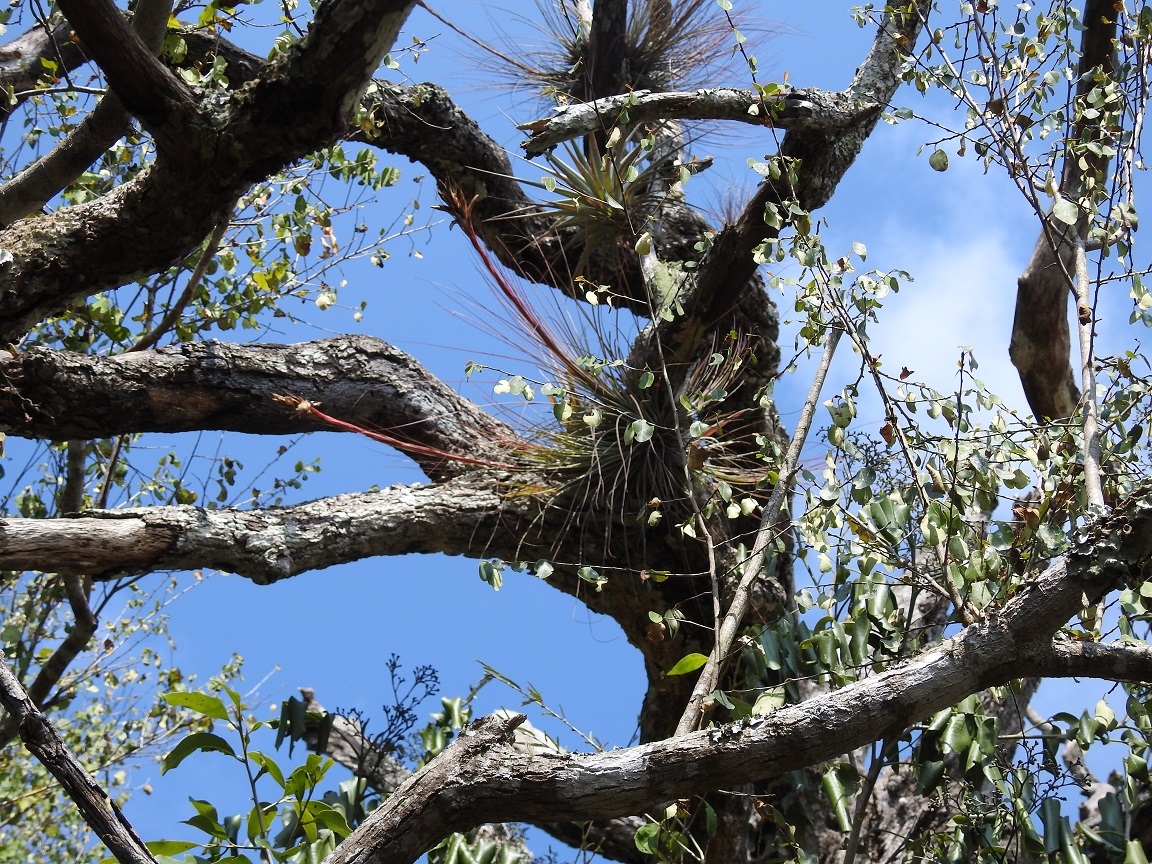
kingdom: Plantae
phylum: Tracheophyta
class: Liliopsida
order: Poales
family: Bromeliaceae
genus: Tillandsia
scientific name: Tillandsia juncea
